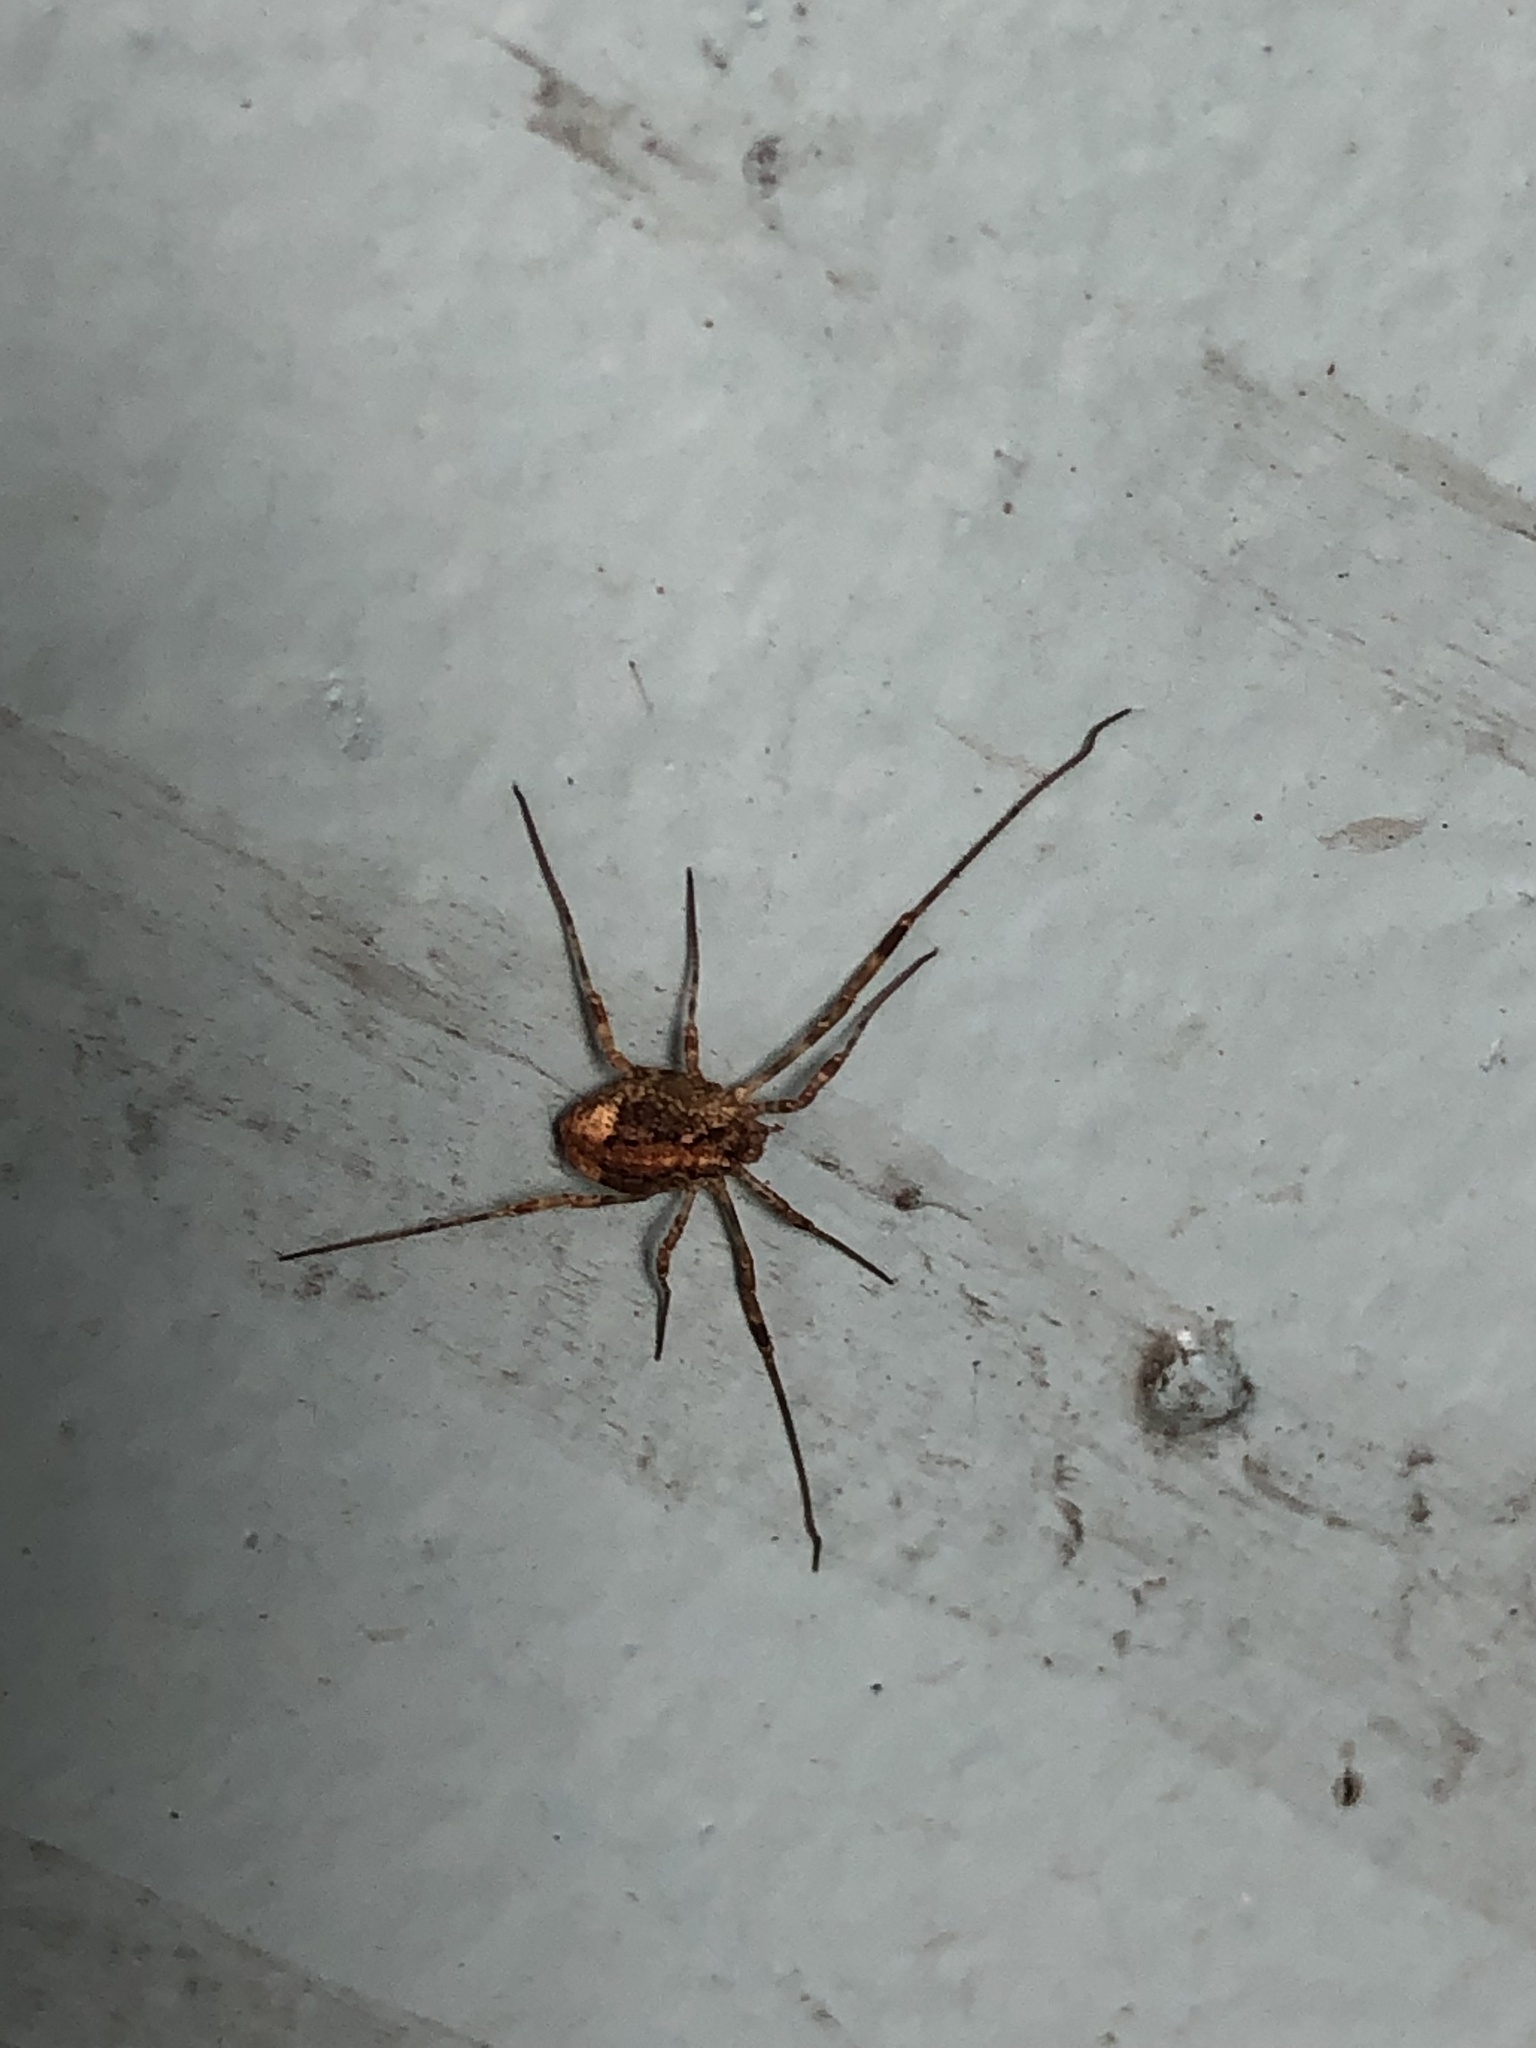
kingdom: Animalia
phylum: Arthropoda
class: Arachnida
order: Opiliones
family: Phalangiidae
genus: Paroligolophus
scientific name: Paroligolophus agrestis
